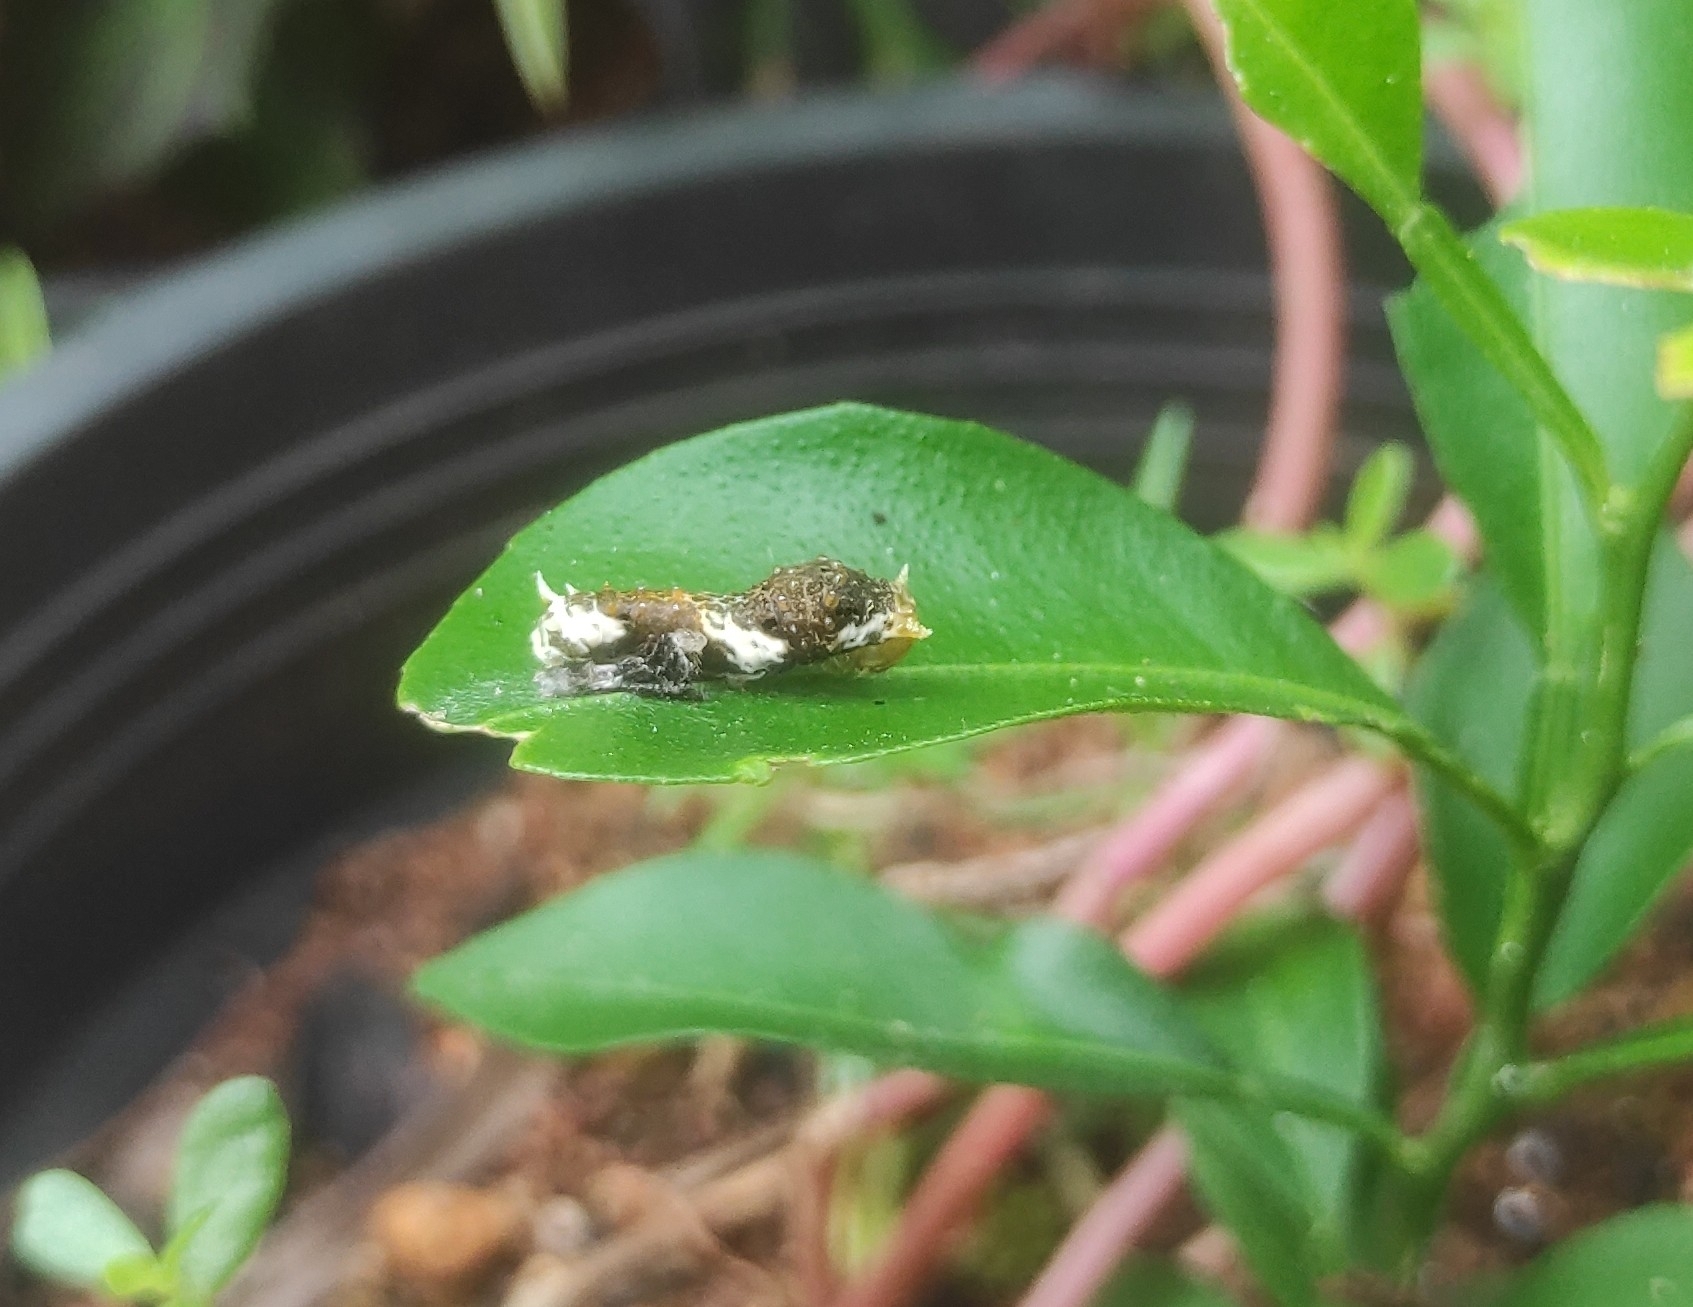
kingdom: Animalia
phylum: Arthropoda
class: Insecta
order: Lepidoptera
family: Papilionidae
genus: Papilio
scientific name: Papilio polytes
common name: Common mormon
